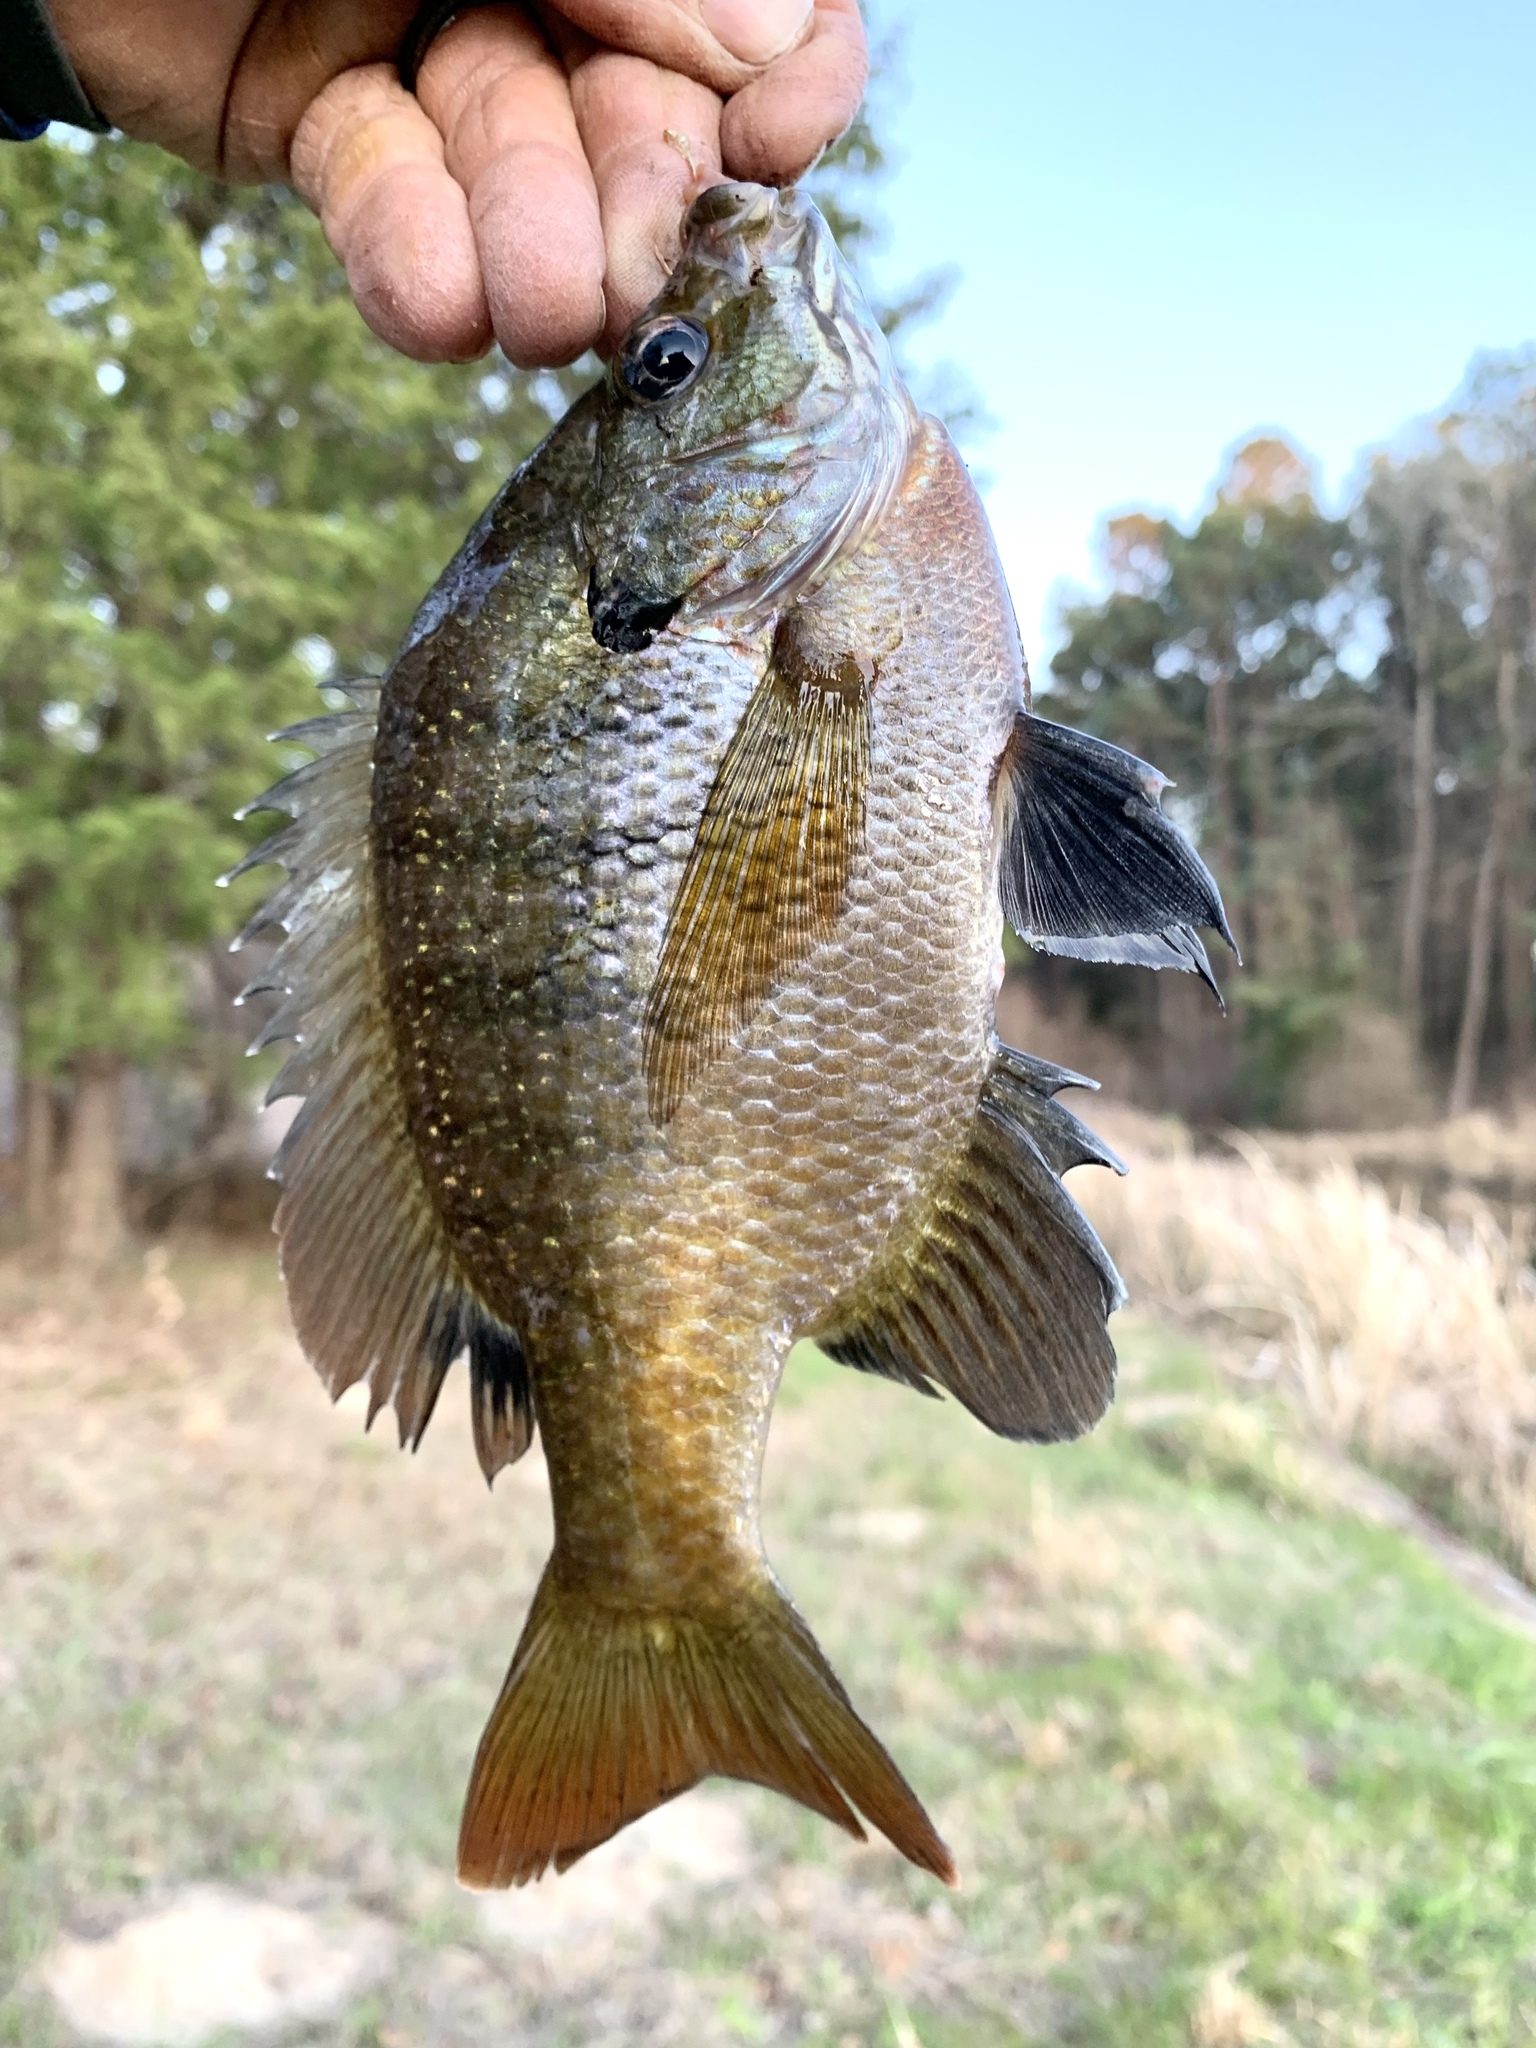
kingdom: Animalia
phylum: Chordata
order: Perciformes
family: Centrarchidae
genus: Lepomis
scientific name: Lepomis macrochirus
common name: Bluegill
